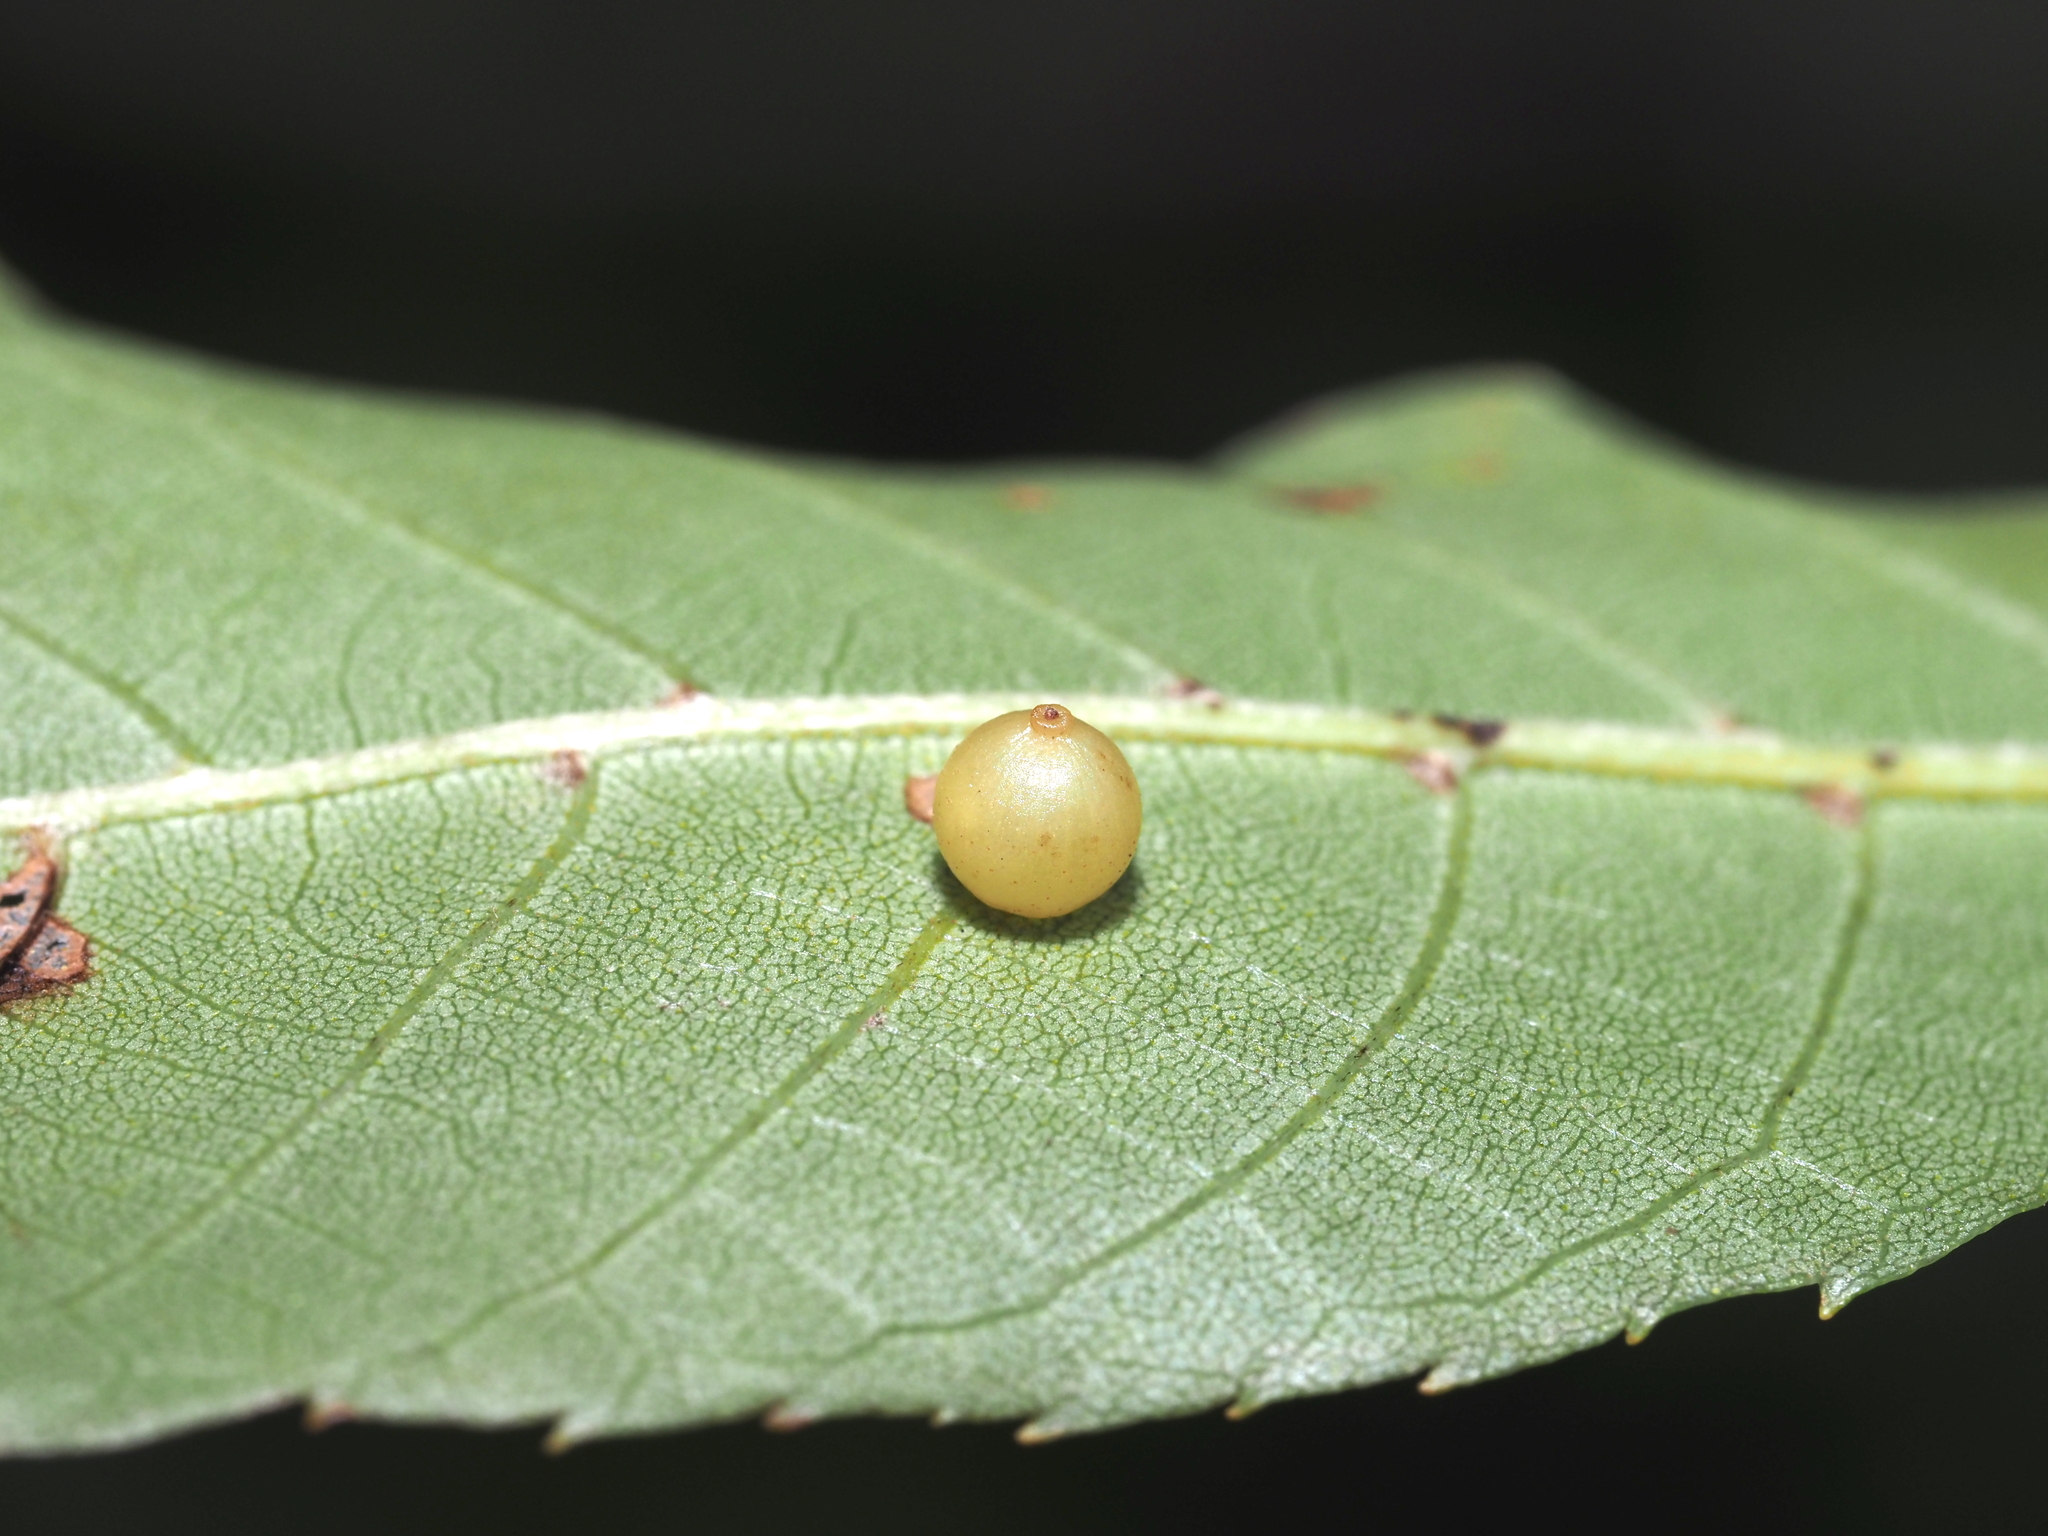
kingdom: Animalia
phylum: Arthropoda
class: Insecta
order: Diptera
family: Cecidomyiidae
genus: Caryomyia
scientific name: Caryomyia leviglobus
